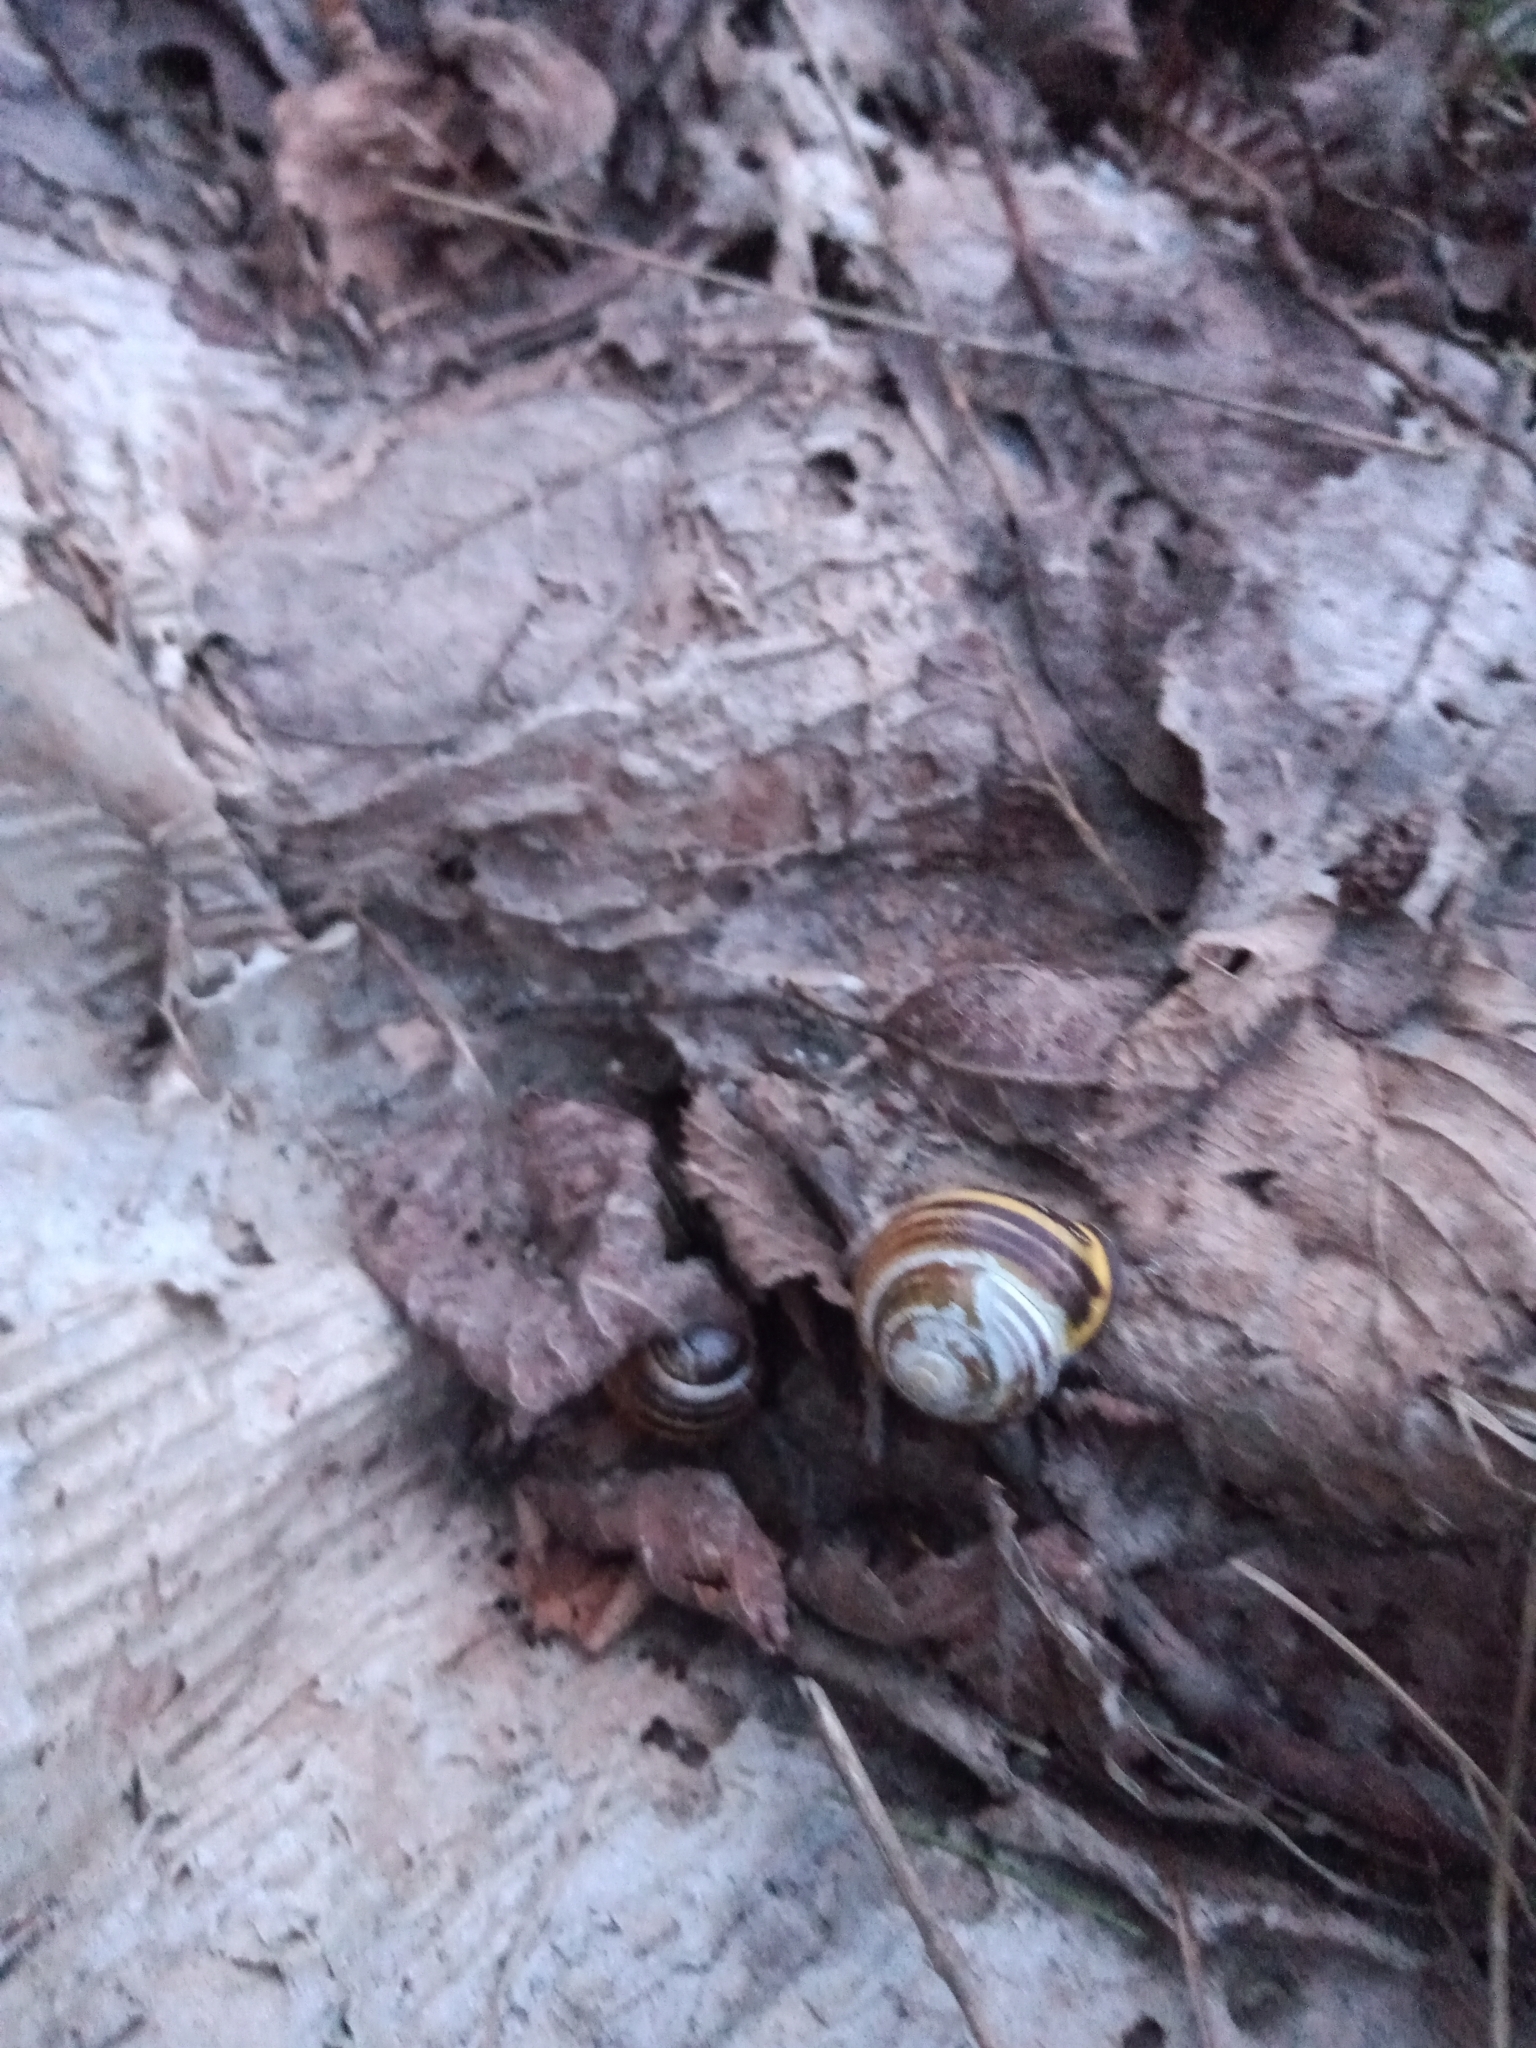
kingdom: Animalia
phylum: Mollusca
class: Gastropoda
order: Stylommatophora
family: Helicidae
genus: Cepaea
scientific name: Cepaea nemoralis
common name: Grovesnail
